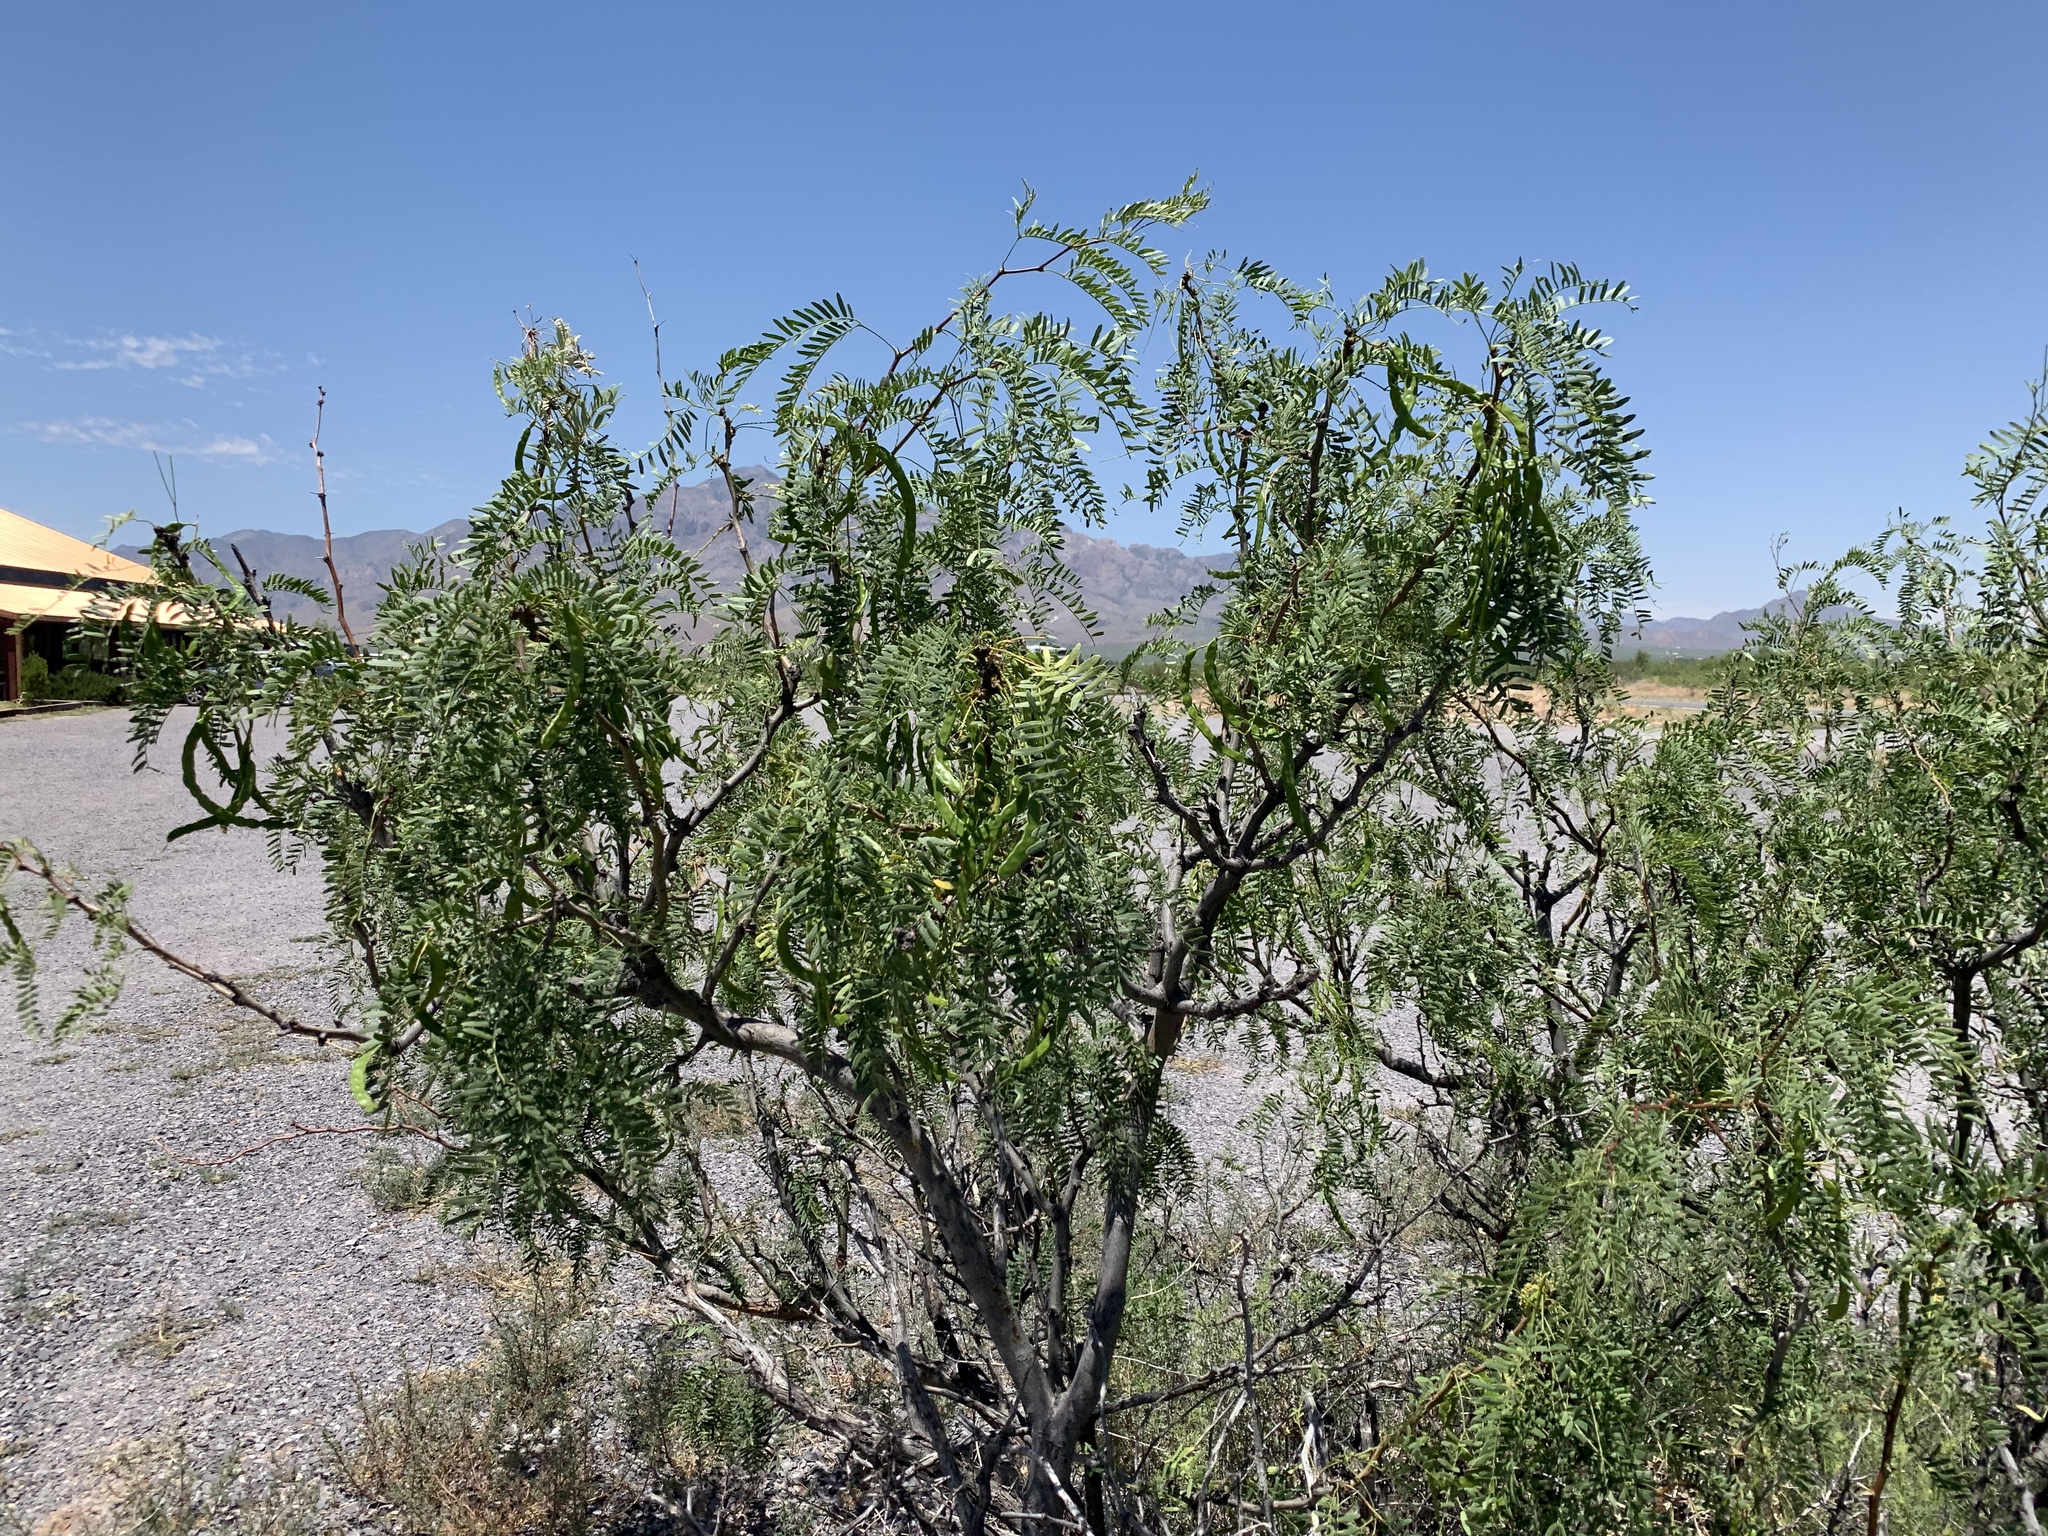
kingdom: Plantae
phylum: Tracheophyta
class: Magnoliopsida
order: Fabales
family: Fabaceae
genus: Prosopis
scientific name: Prosopis glandulosa
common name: Honey mesquite
